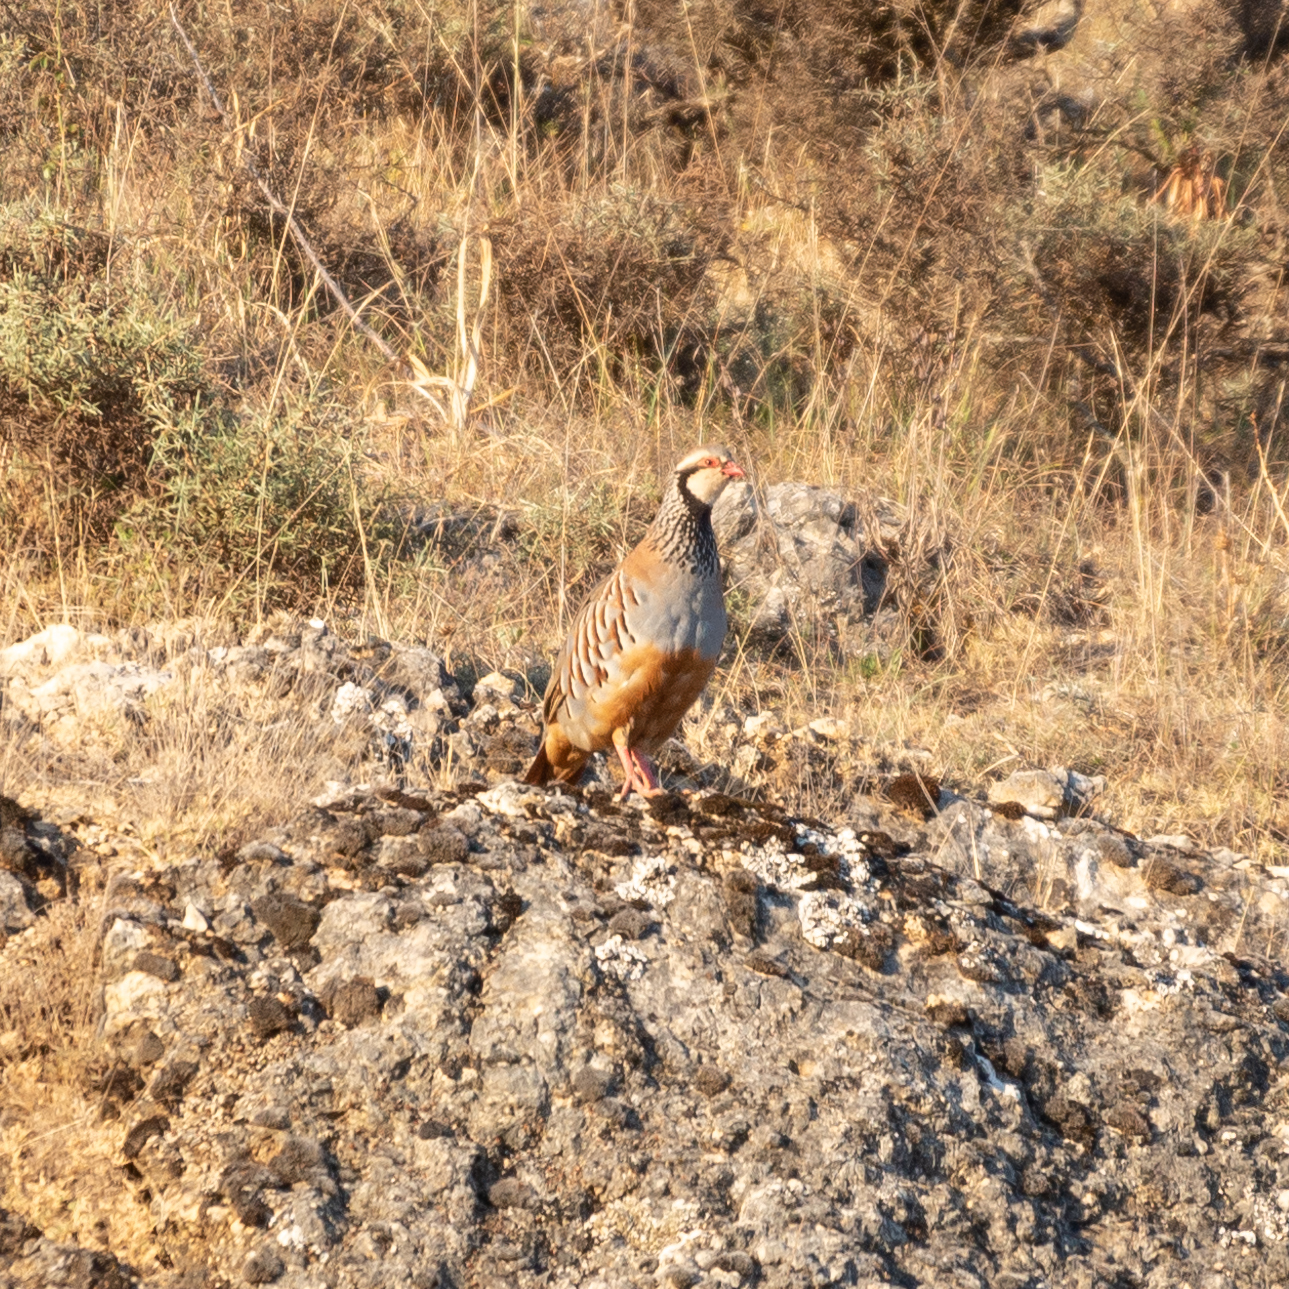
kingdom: Animalia
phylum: Chordata
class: Aves
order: Galliformes
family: Phasianidae
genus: Alectoris
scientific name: Alectoris rufa
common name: Red-legged partridge
